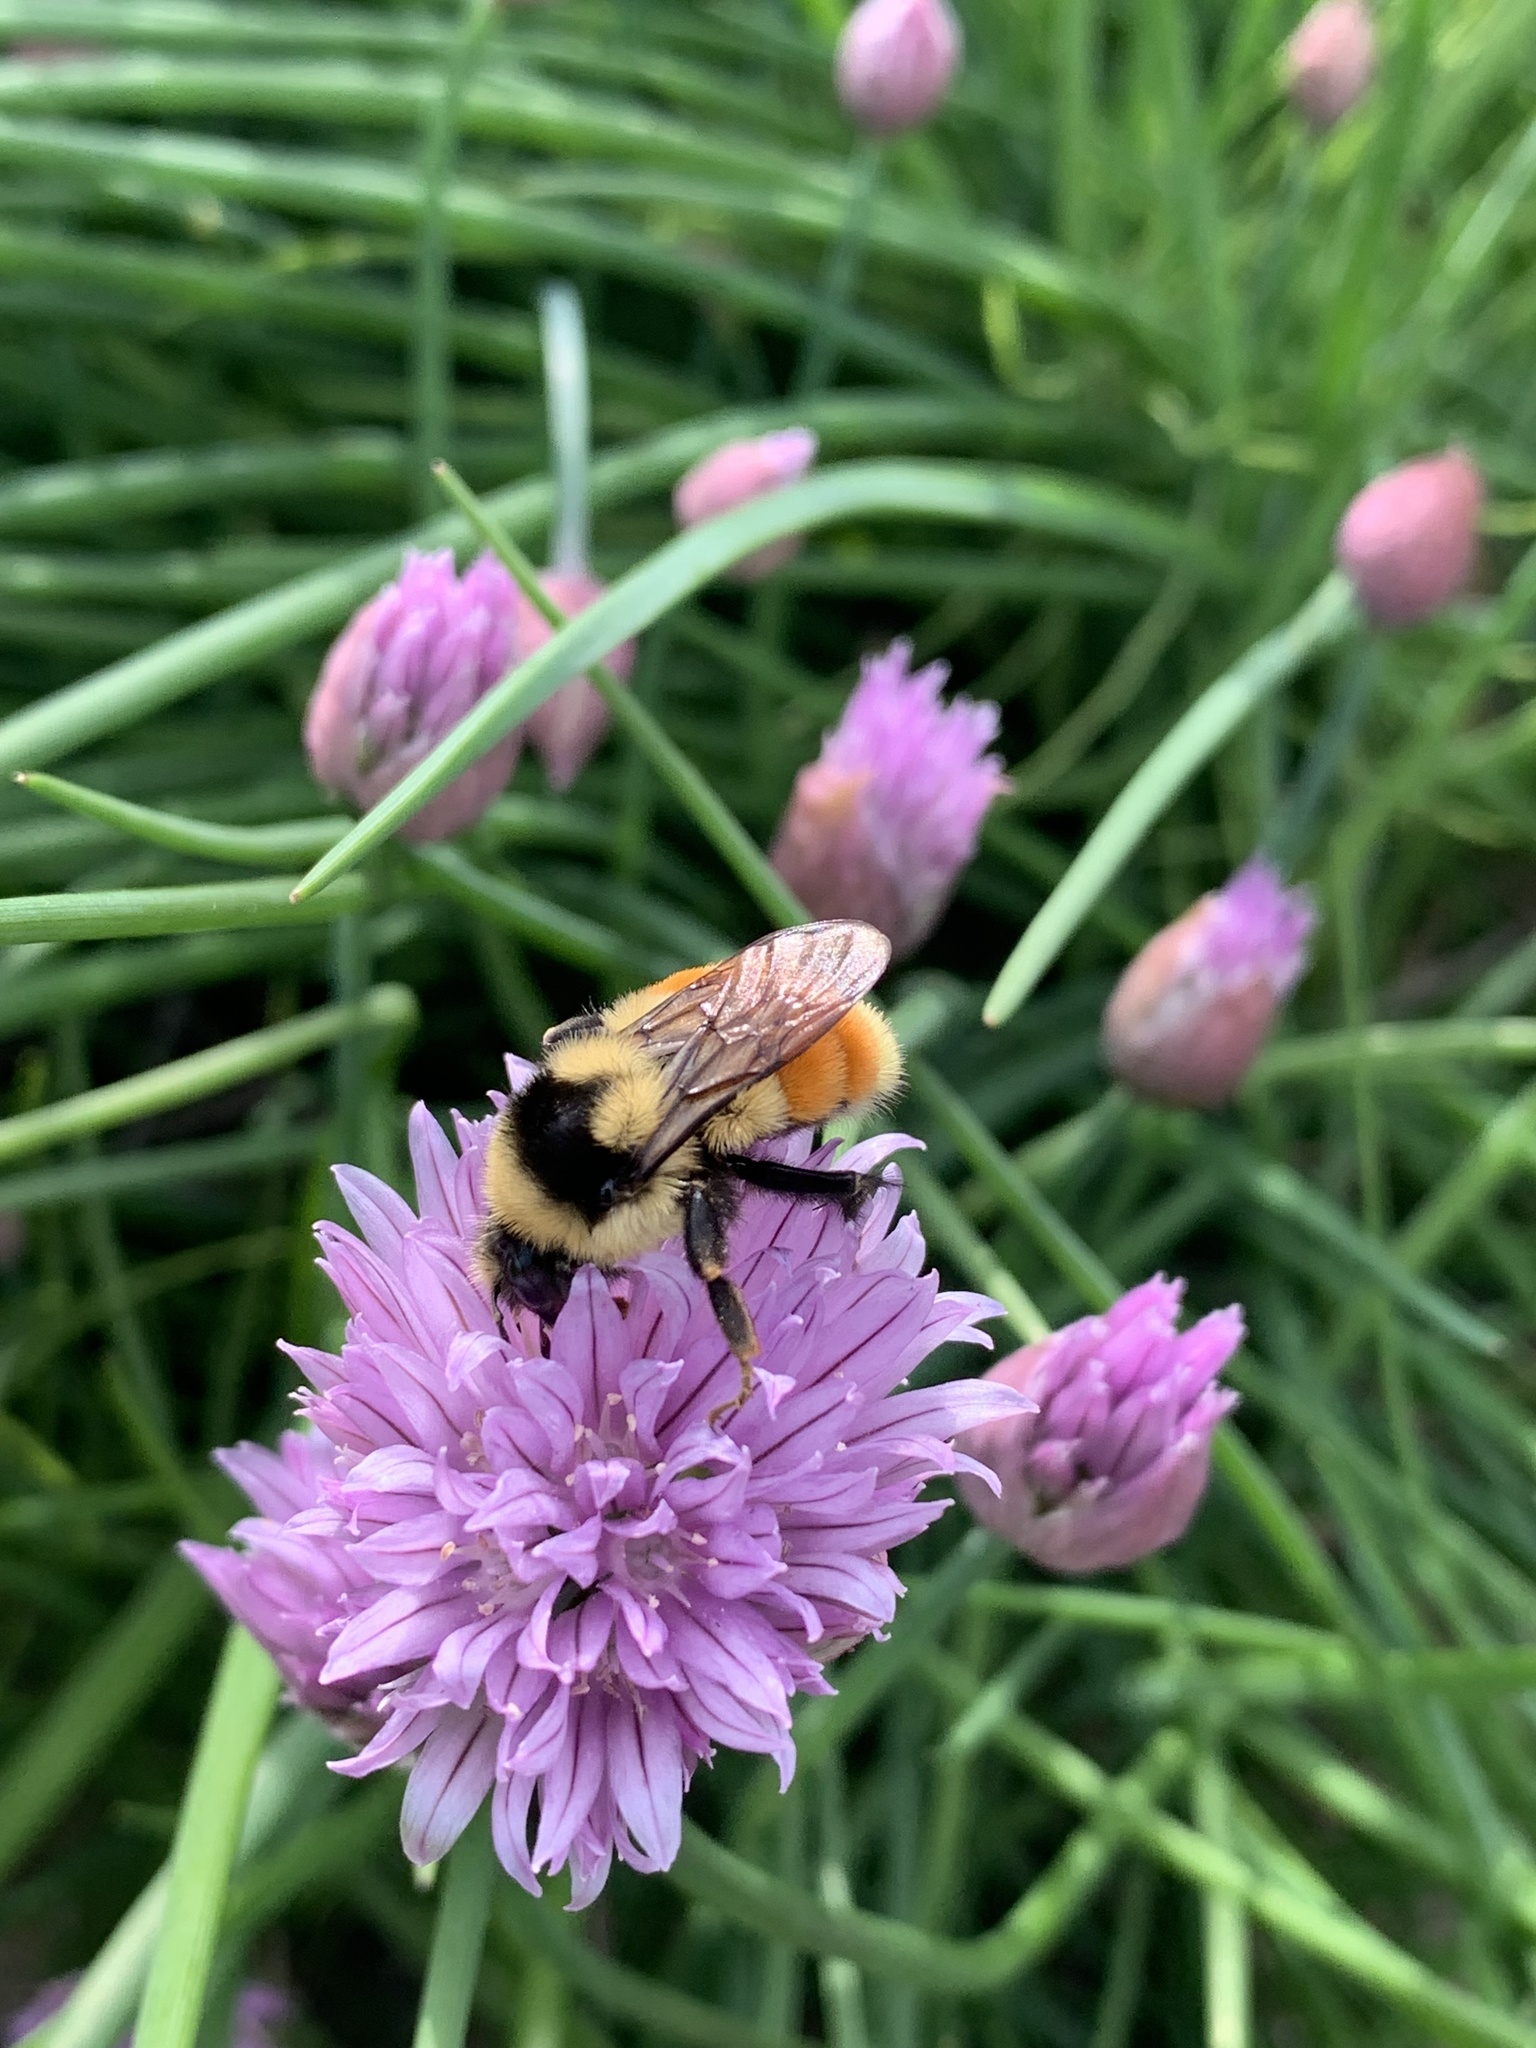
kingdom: Animalia
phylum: Arthropoda
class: Insecta
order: Hymenoptera
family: Apidae
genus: Bombus
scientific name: Bombus ternarius
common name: Tri-colored bumble bee
